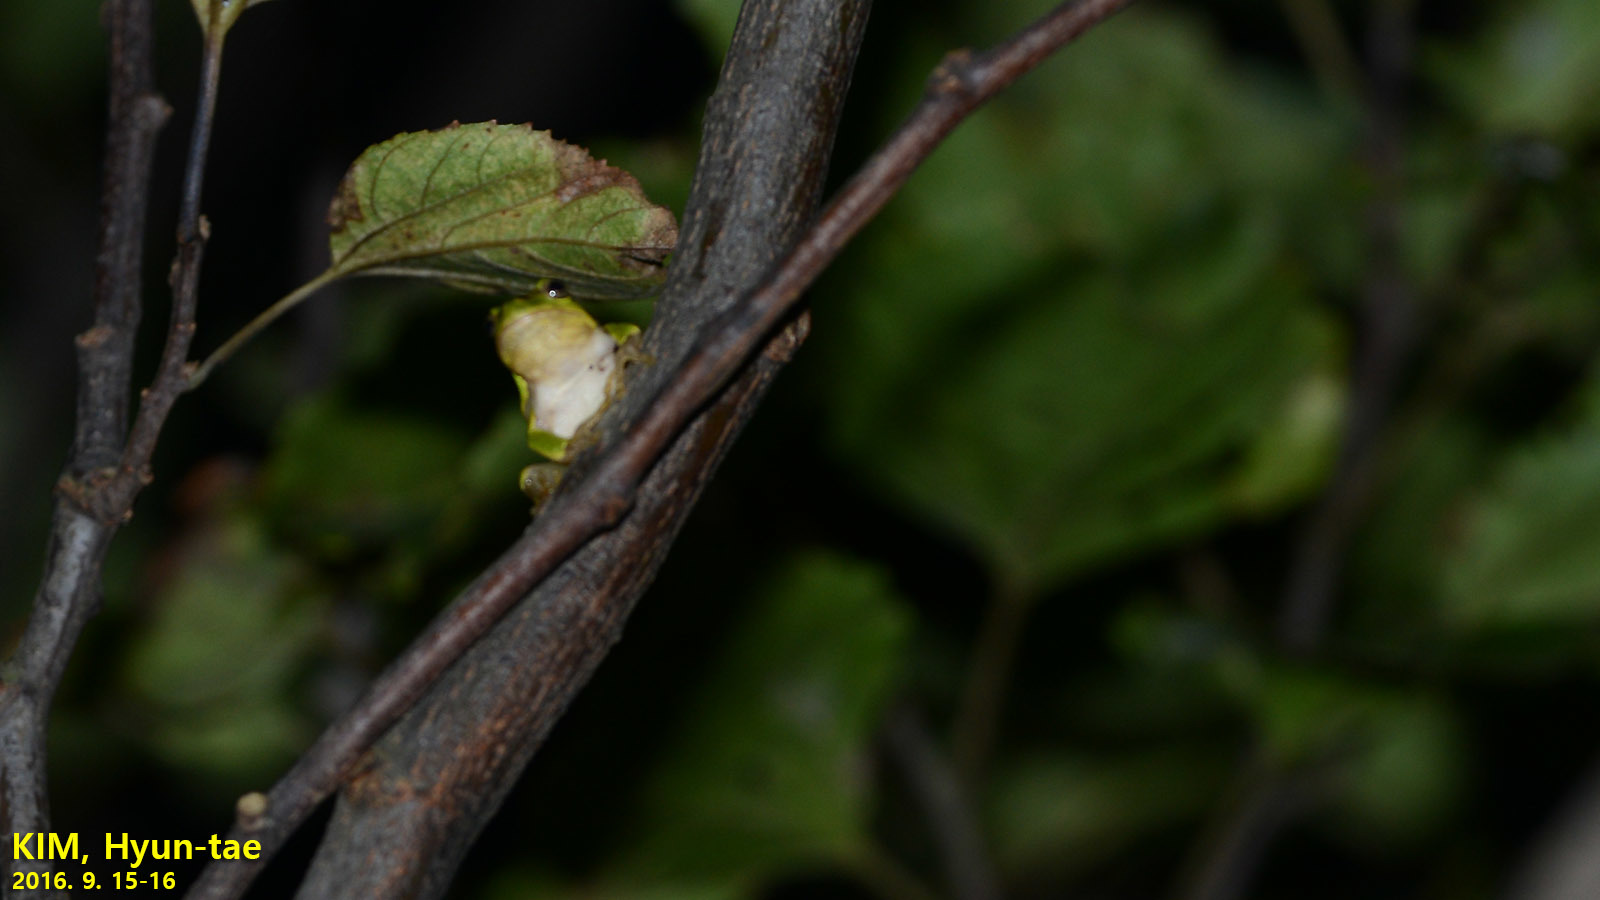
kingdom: Animalia
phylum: Chordata
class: Amphibia
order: Anura
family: Hylidae
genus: Dryophytes
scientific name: Dryophytes japonicus
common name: Japanese treefrog
